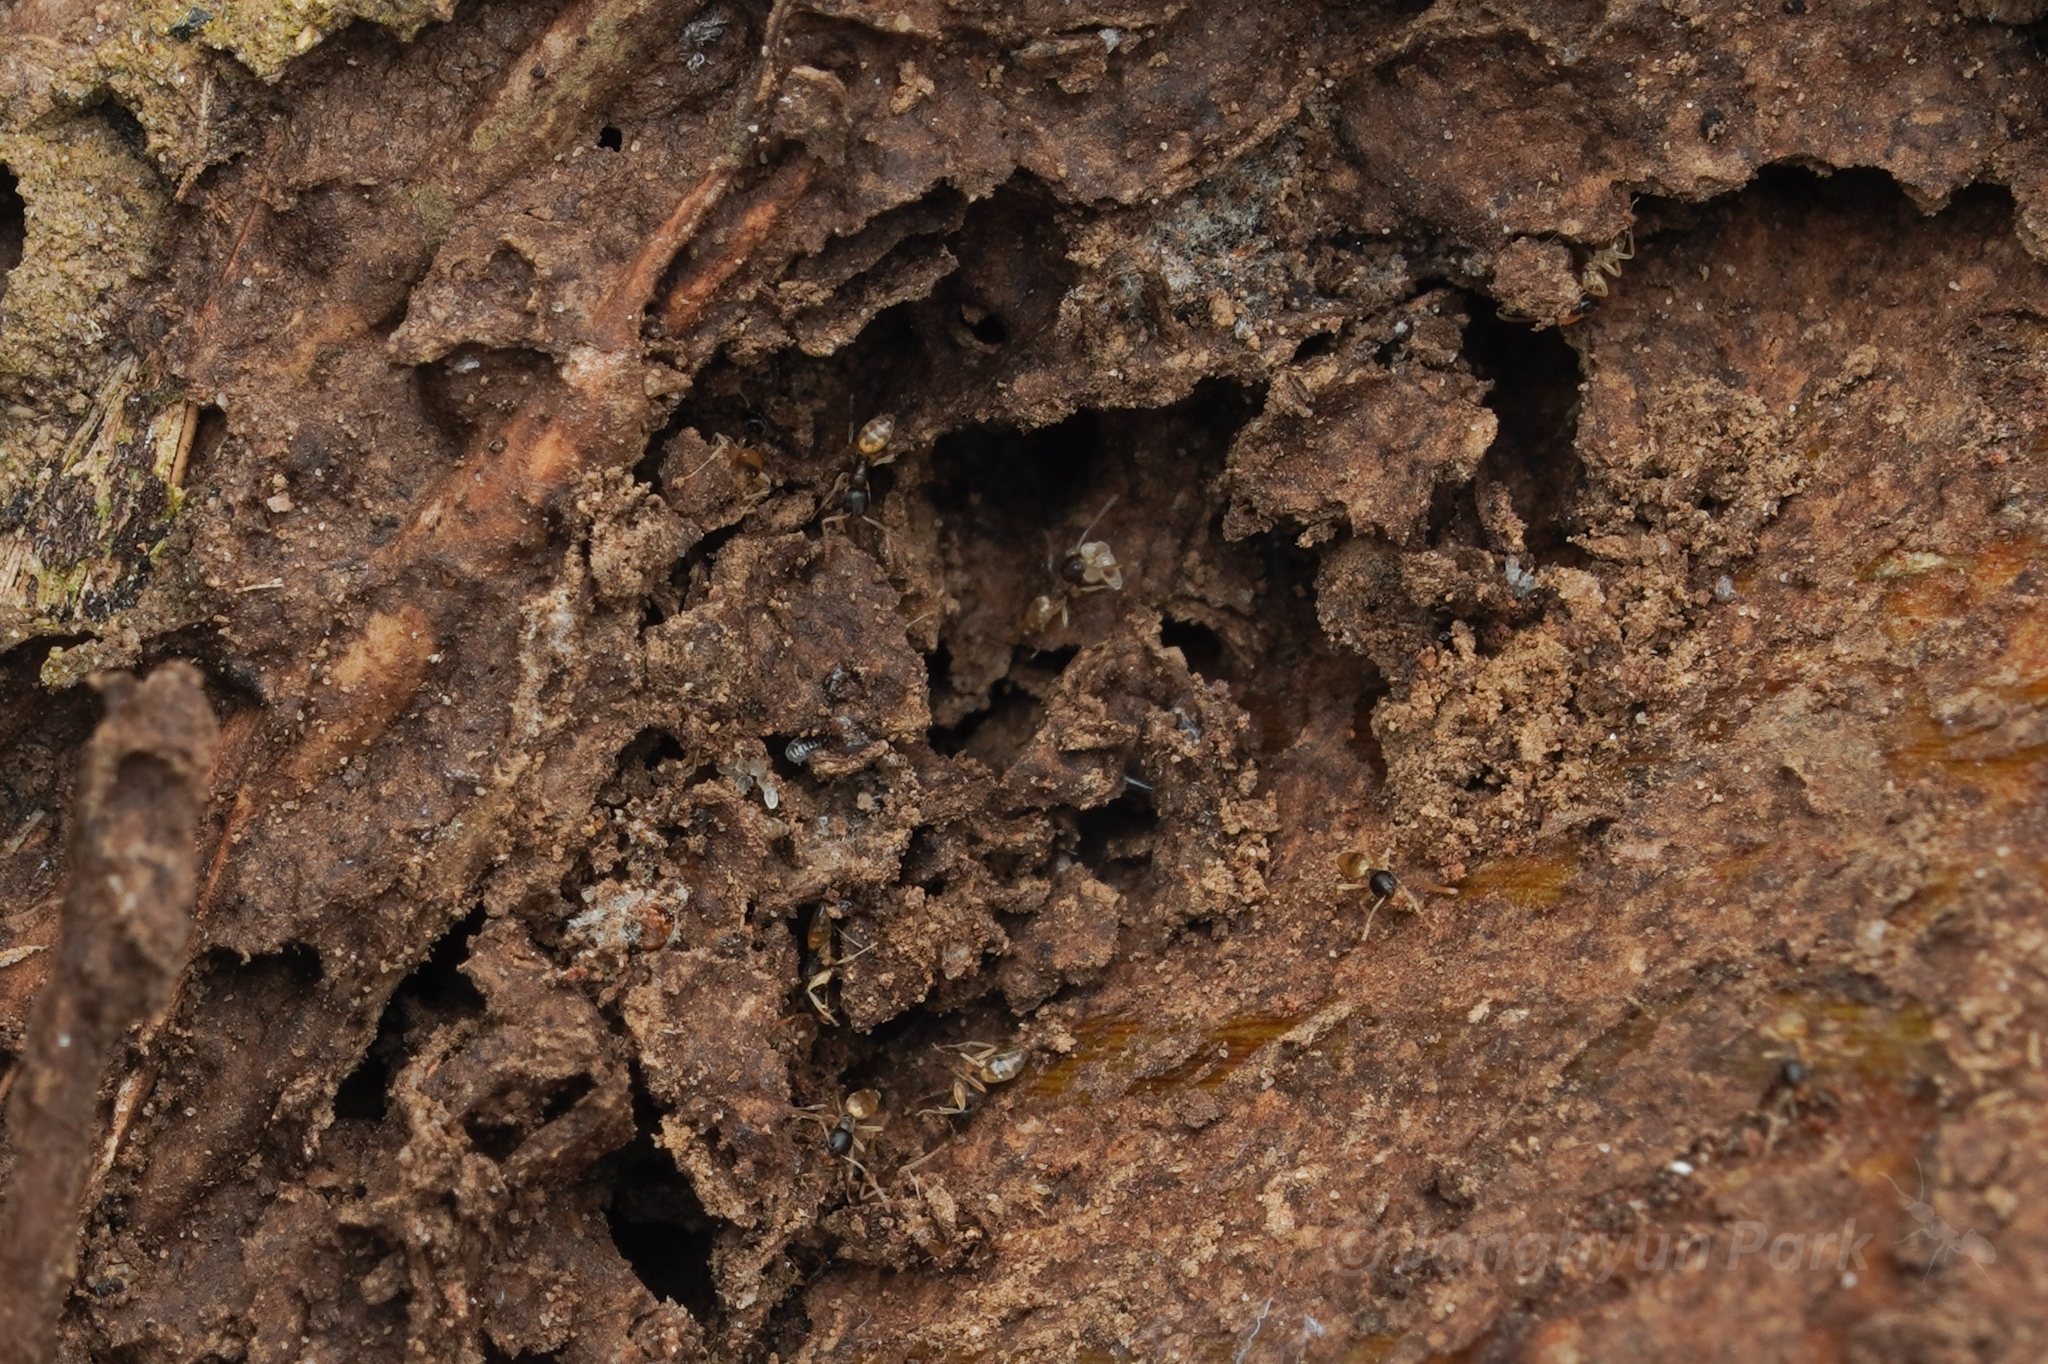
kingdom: Animalia
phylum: Arthropoda
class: Insecta
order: Hymenoptera
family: Formicidae
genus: Tapinoma
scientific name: Tapinoma melanocephalum
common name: Ghost ant
